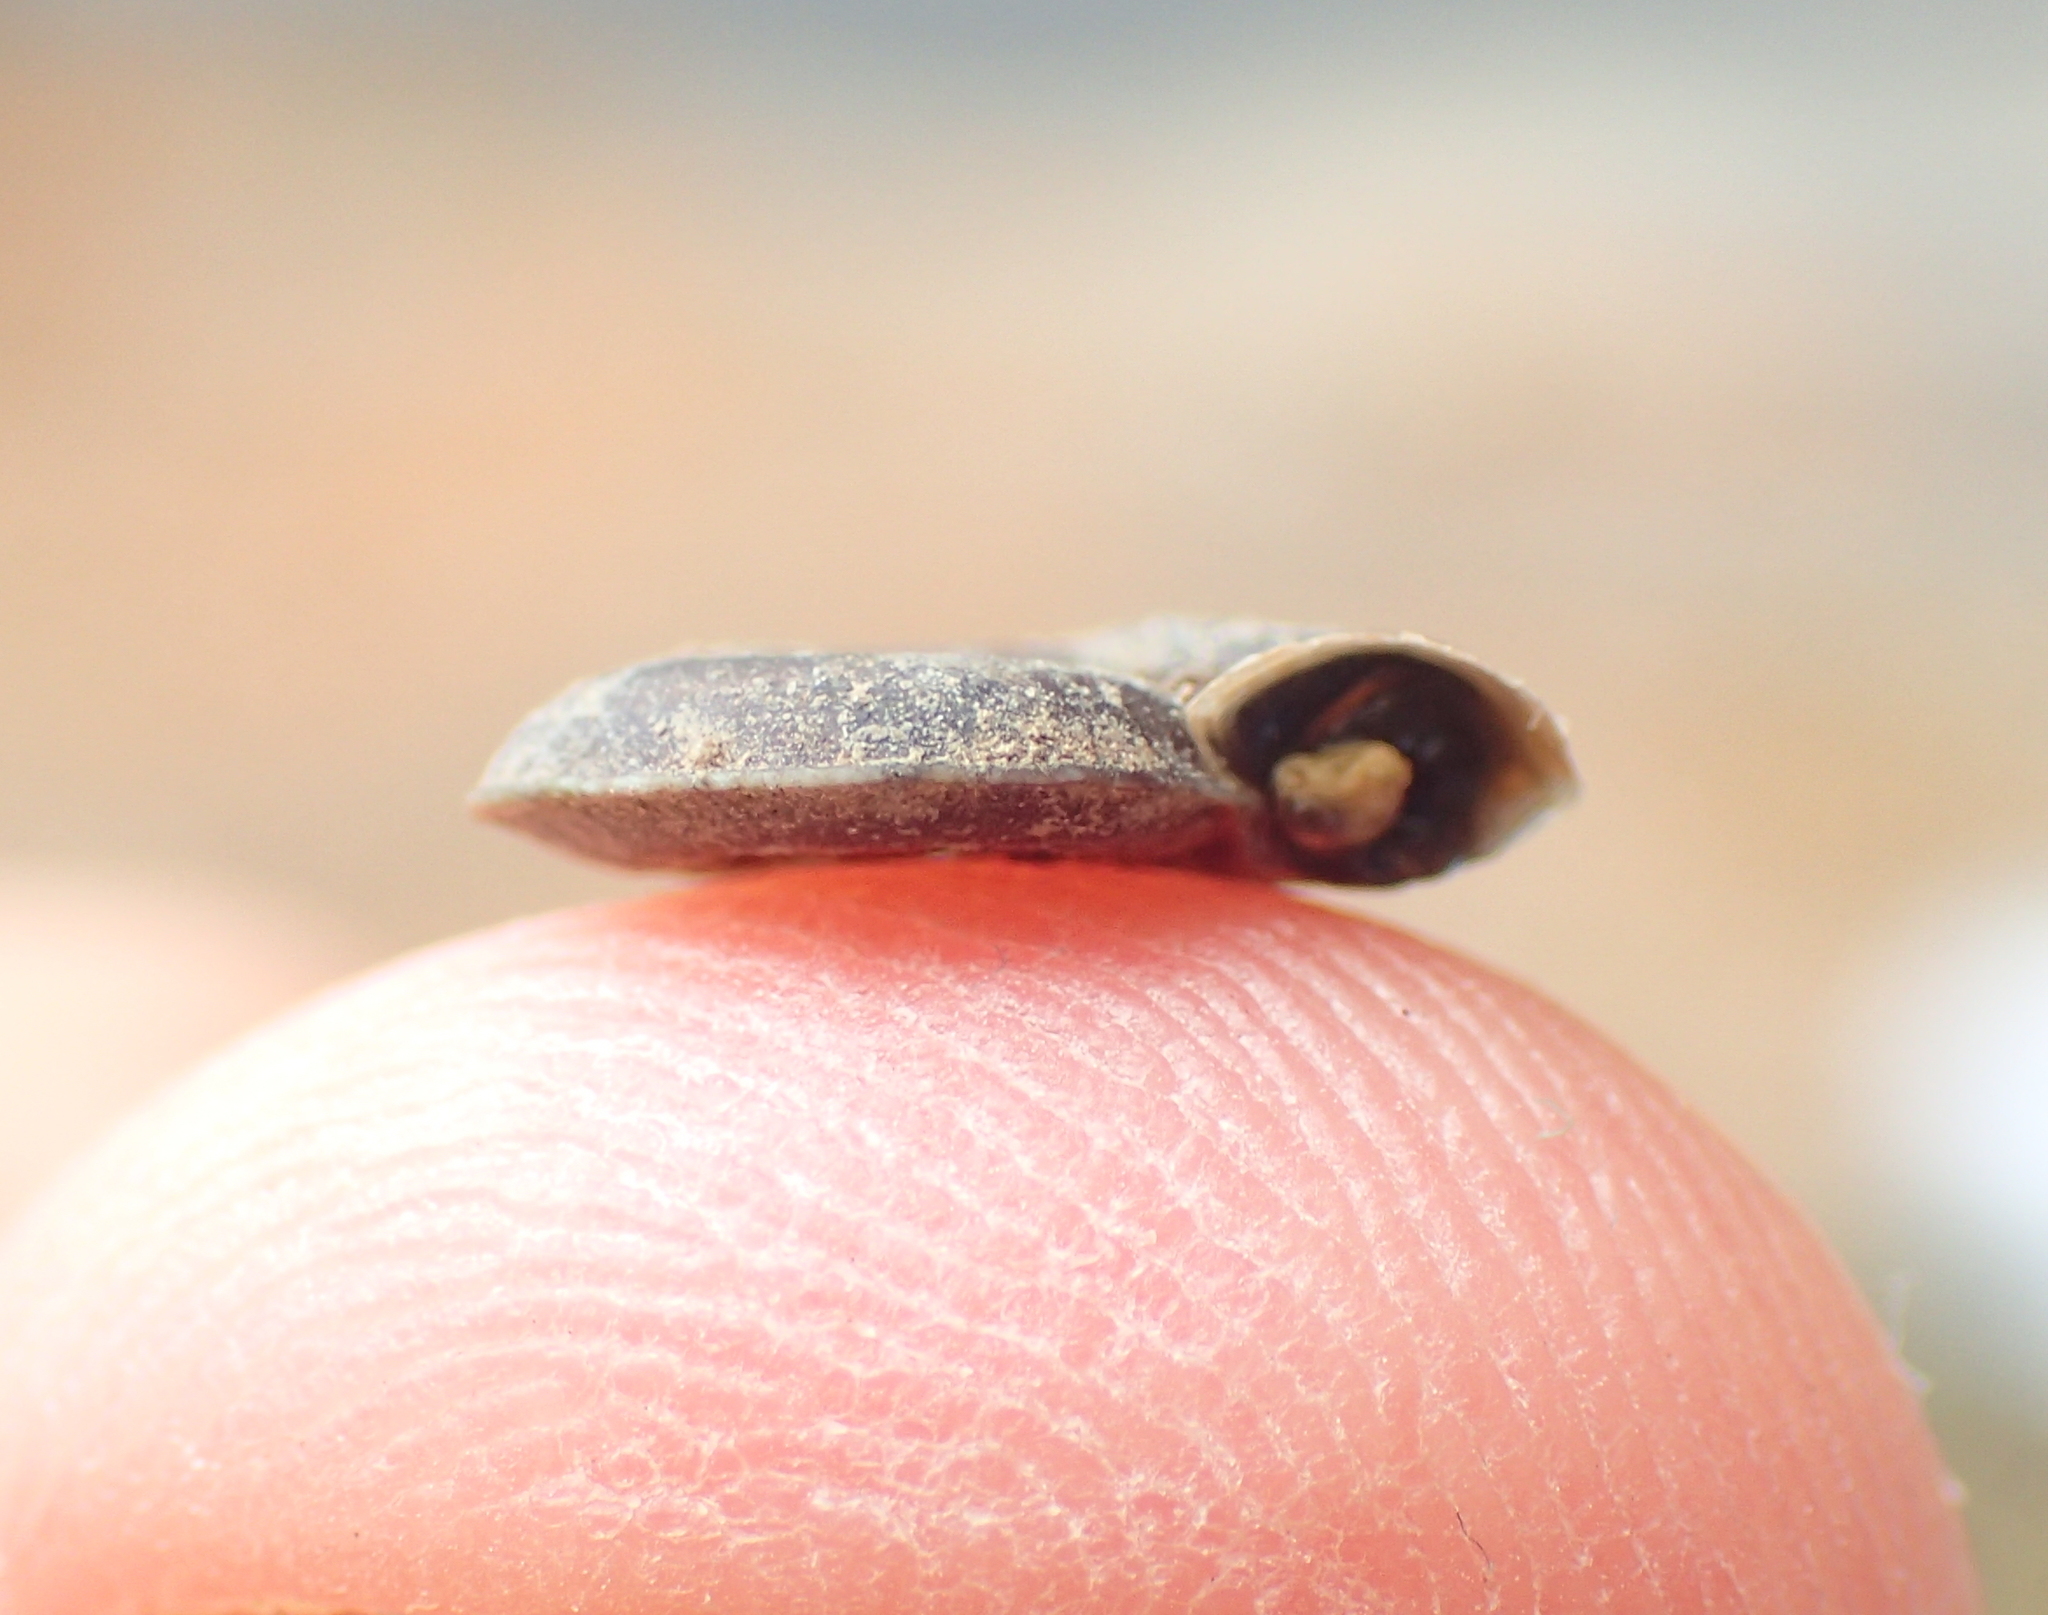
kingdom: Animalia
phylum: Mollusca
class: Gastropoda
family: Planorbidae
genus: Planorbis
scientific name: Planorbis planorbis
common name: Margined ramshorn
